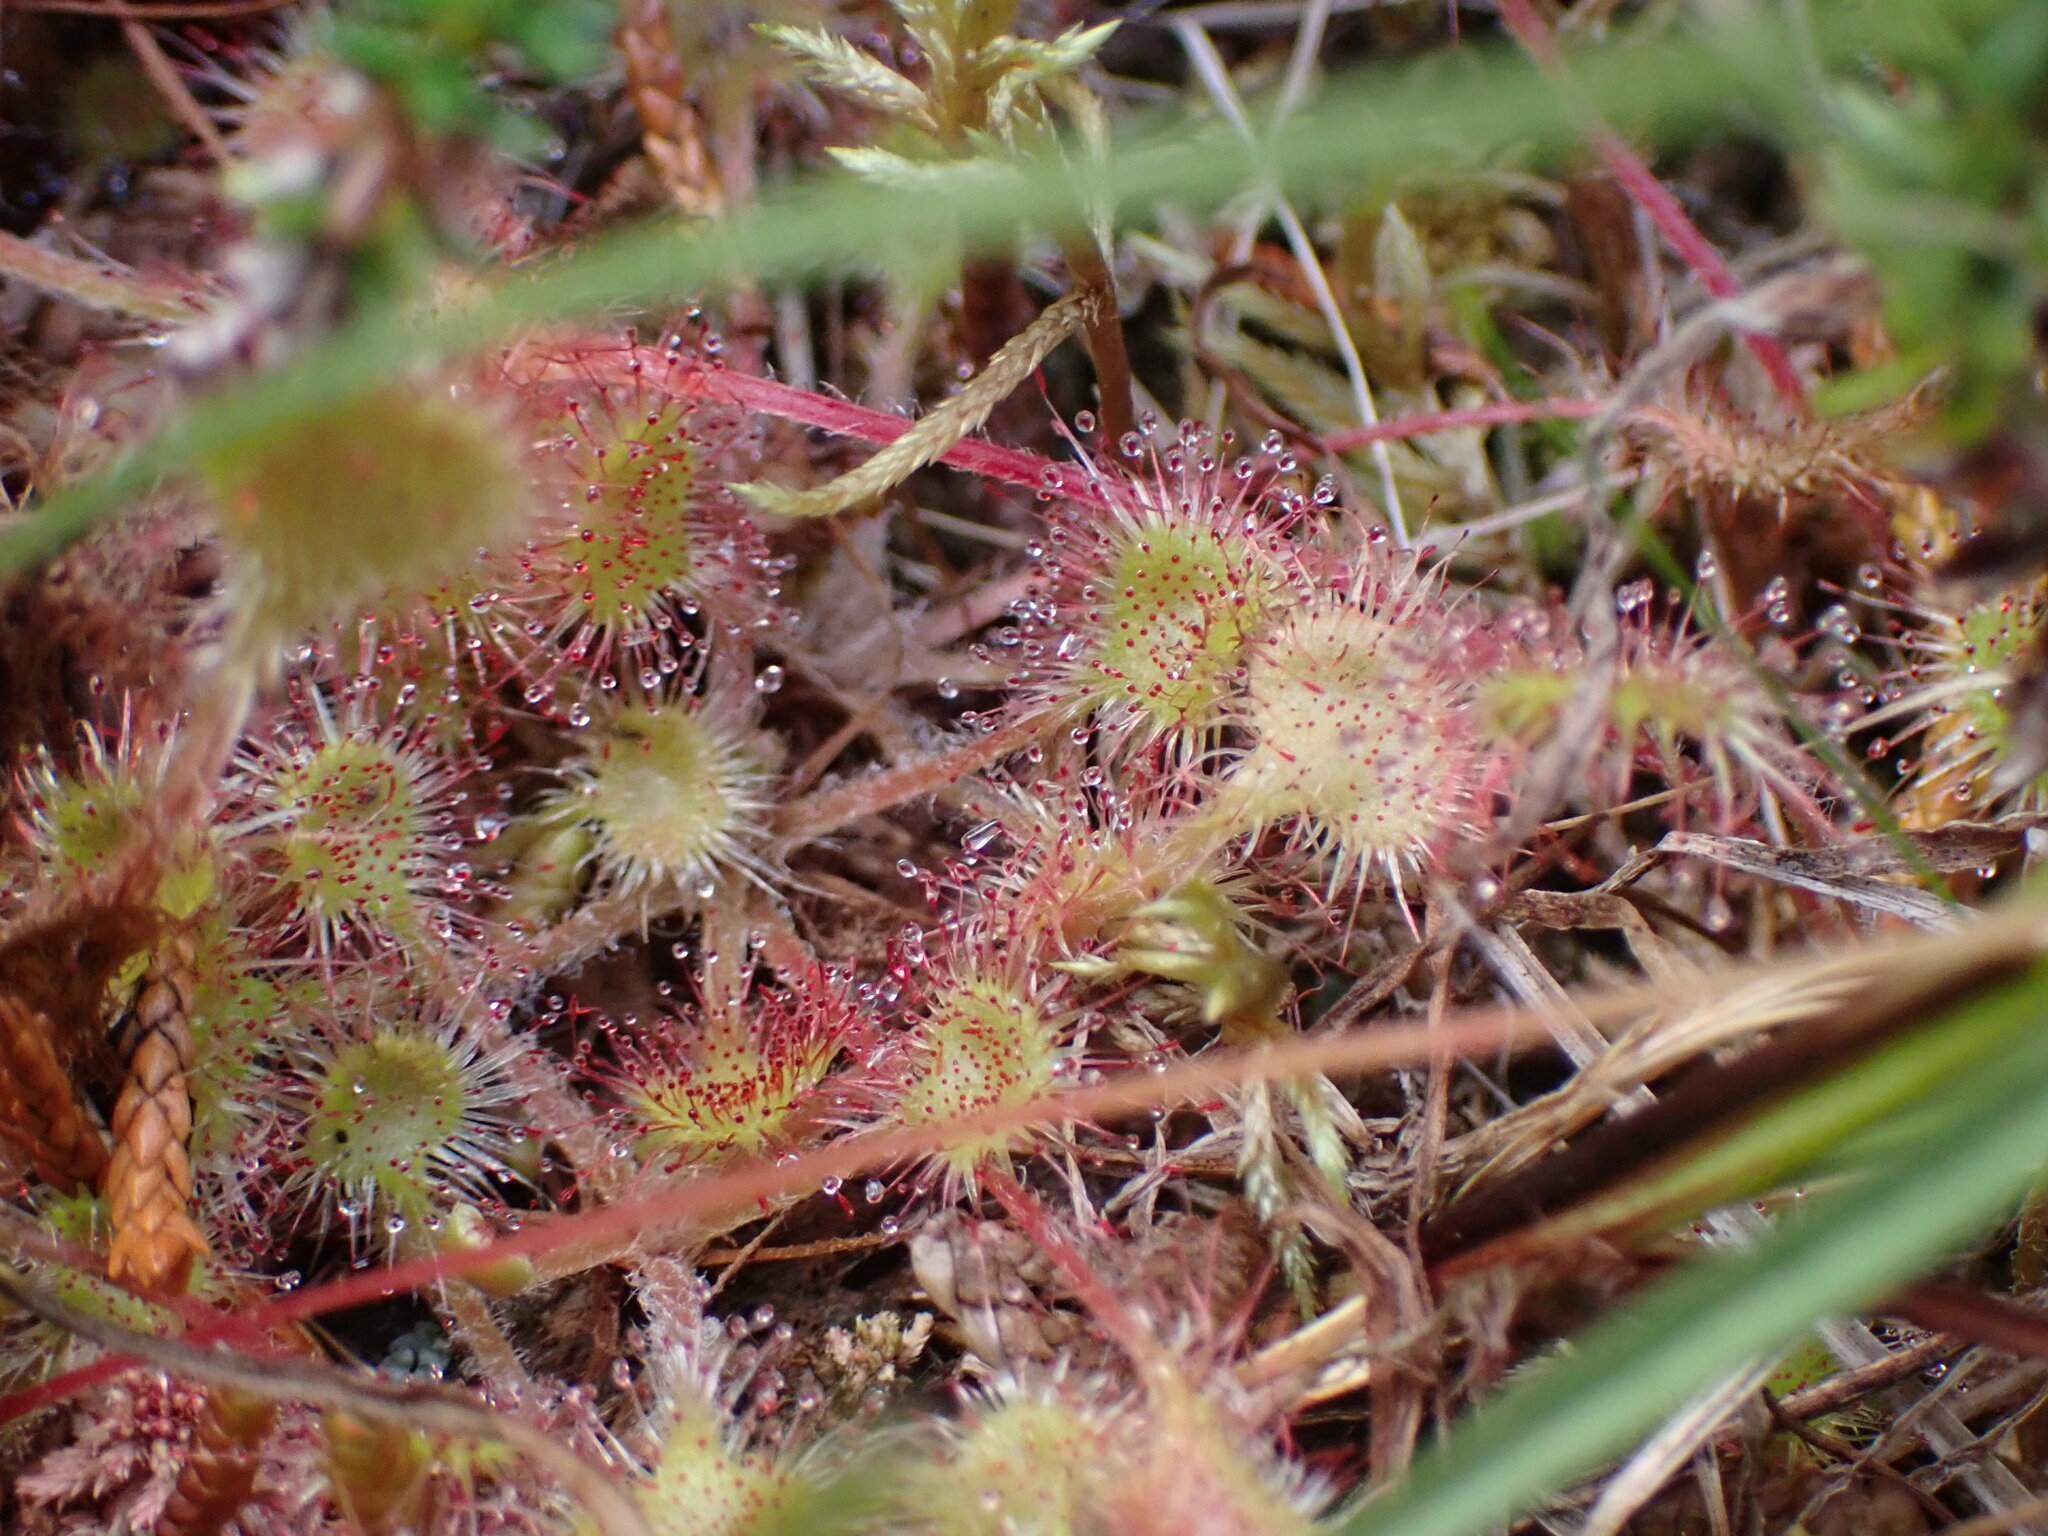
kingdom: Plantae
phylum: Tracheophyta
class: Magnoliopsida
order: Caryophyllales
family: Droseraceae
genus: Drosera
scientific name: Drosera rotundifolia
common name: Round-leaved sundew
